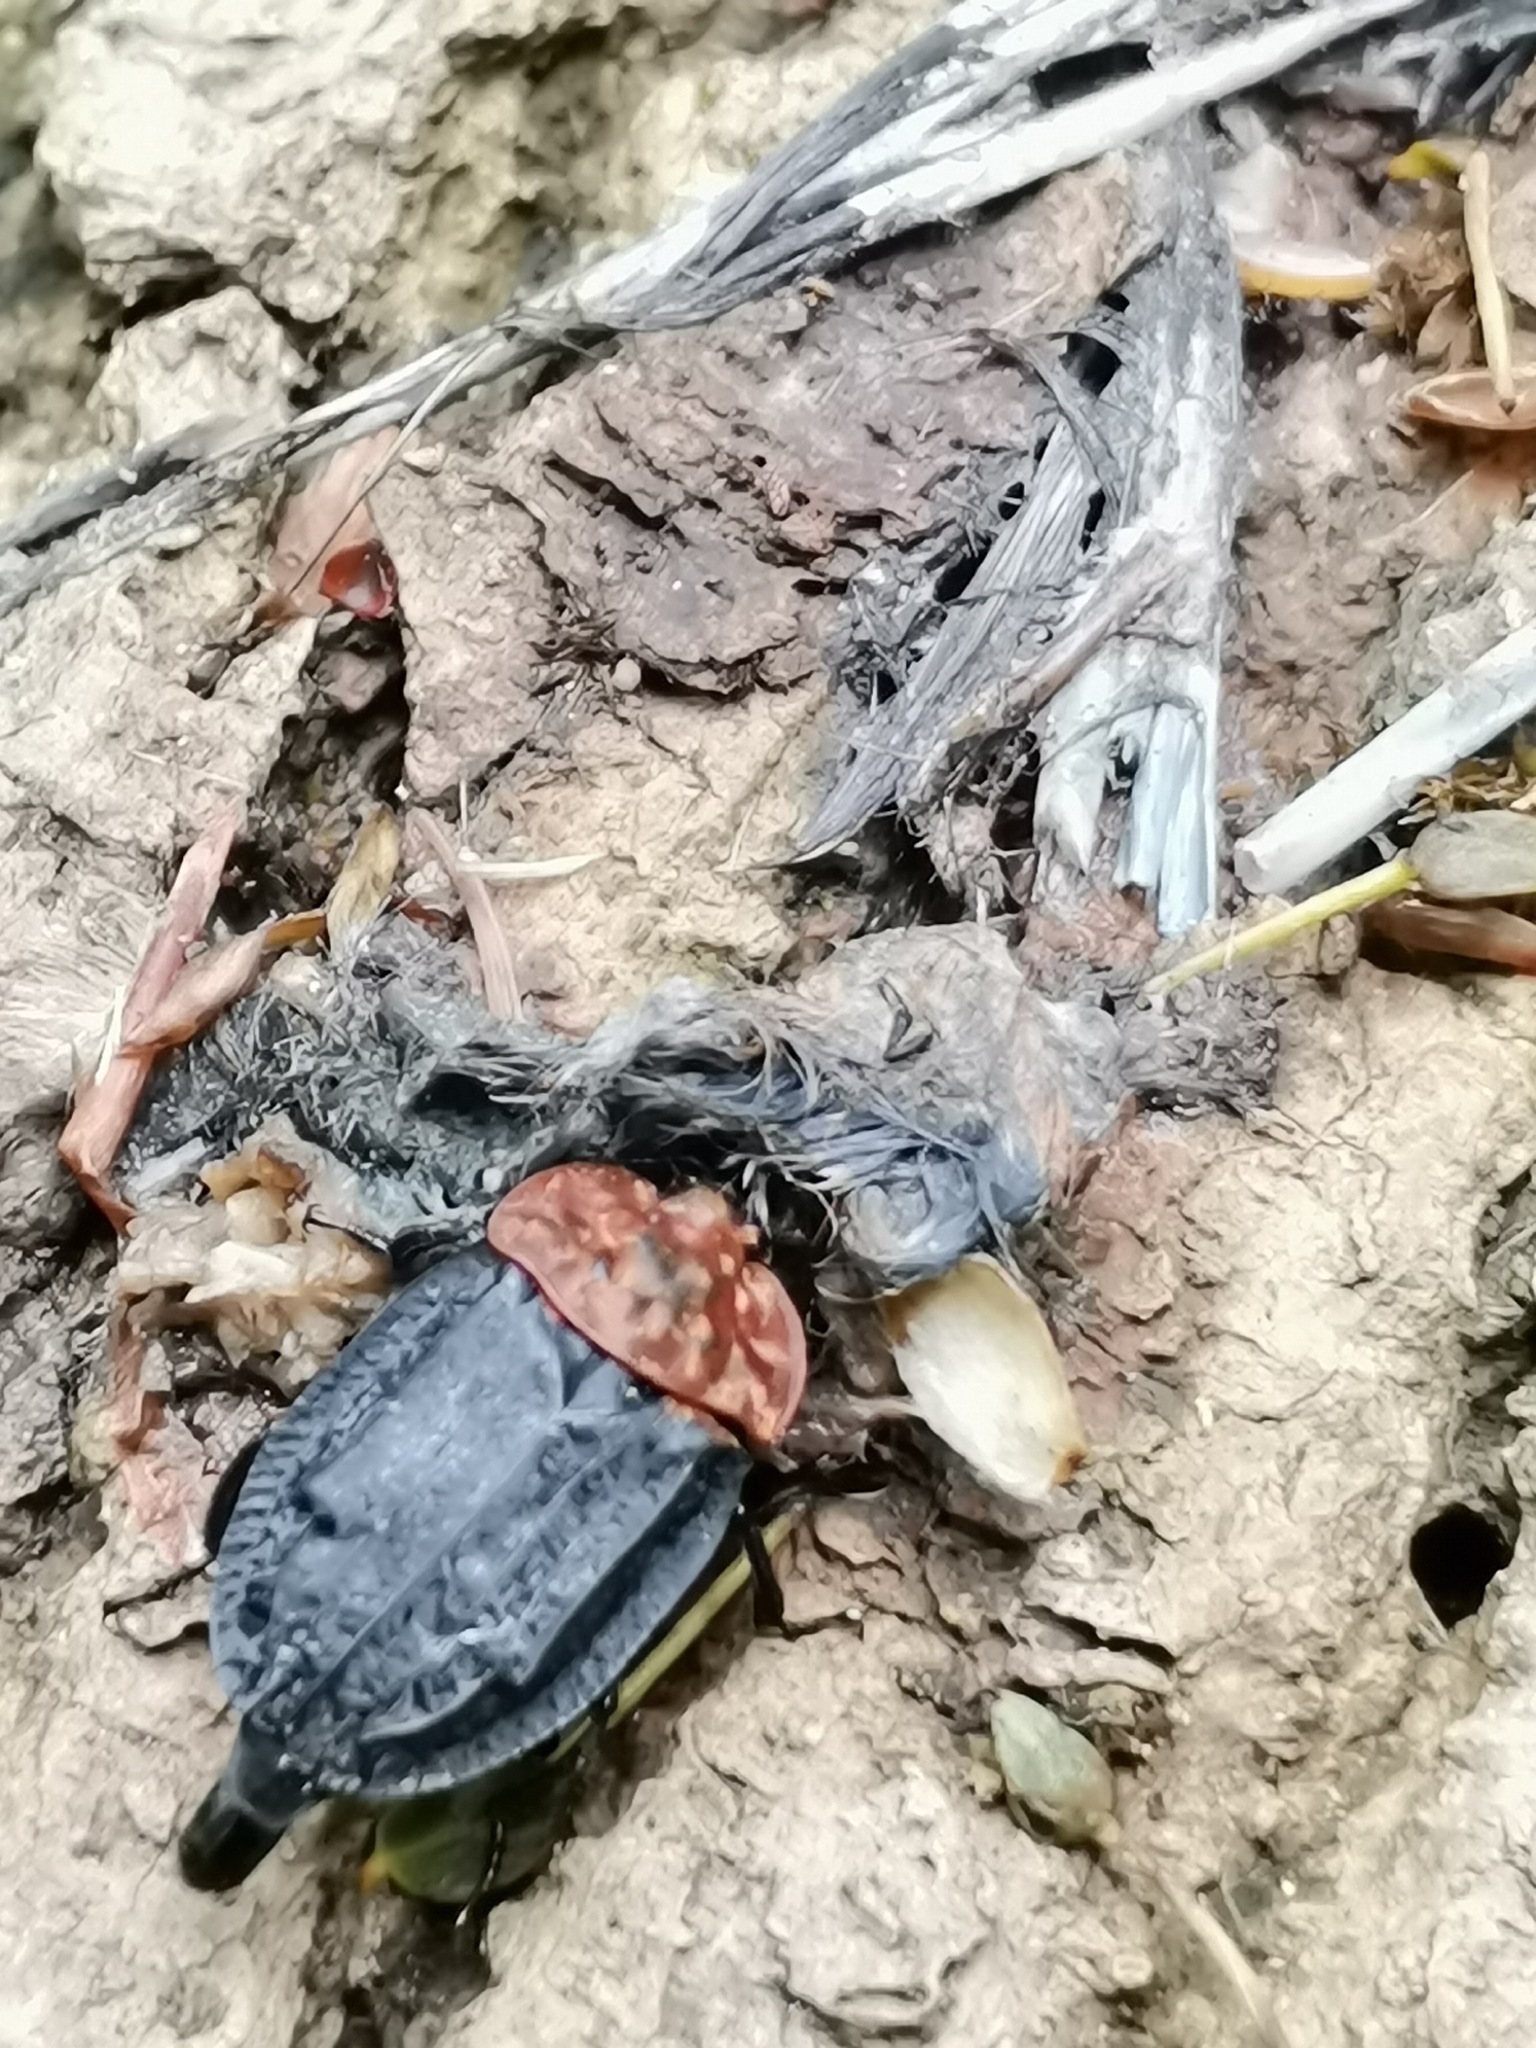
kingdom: Animalia
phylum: Arthropoda
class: Insecta
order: Coleoptera
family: Staphylinidae
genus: Oiceoptoma
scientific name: Oiceoptoma thoracicum
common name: Red-breasted carrion beetle
